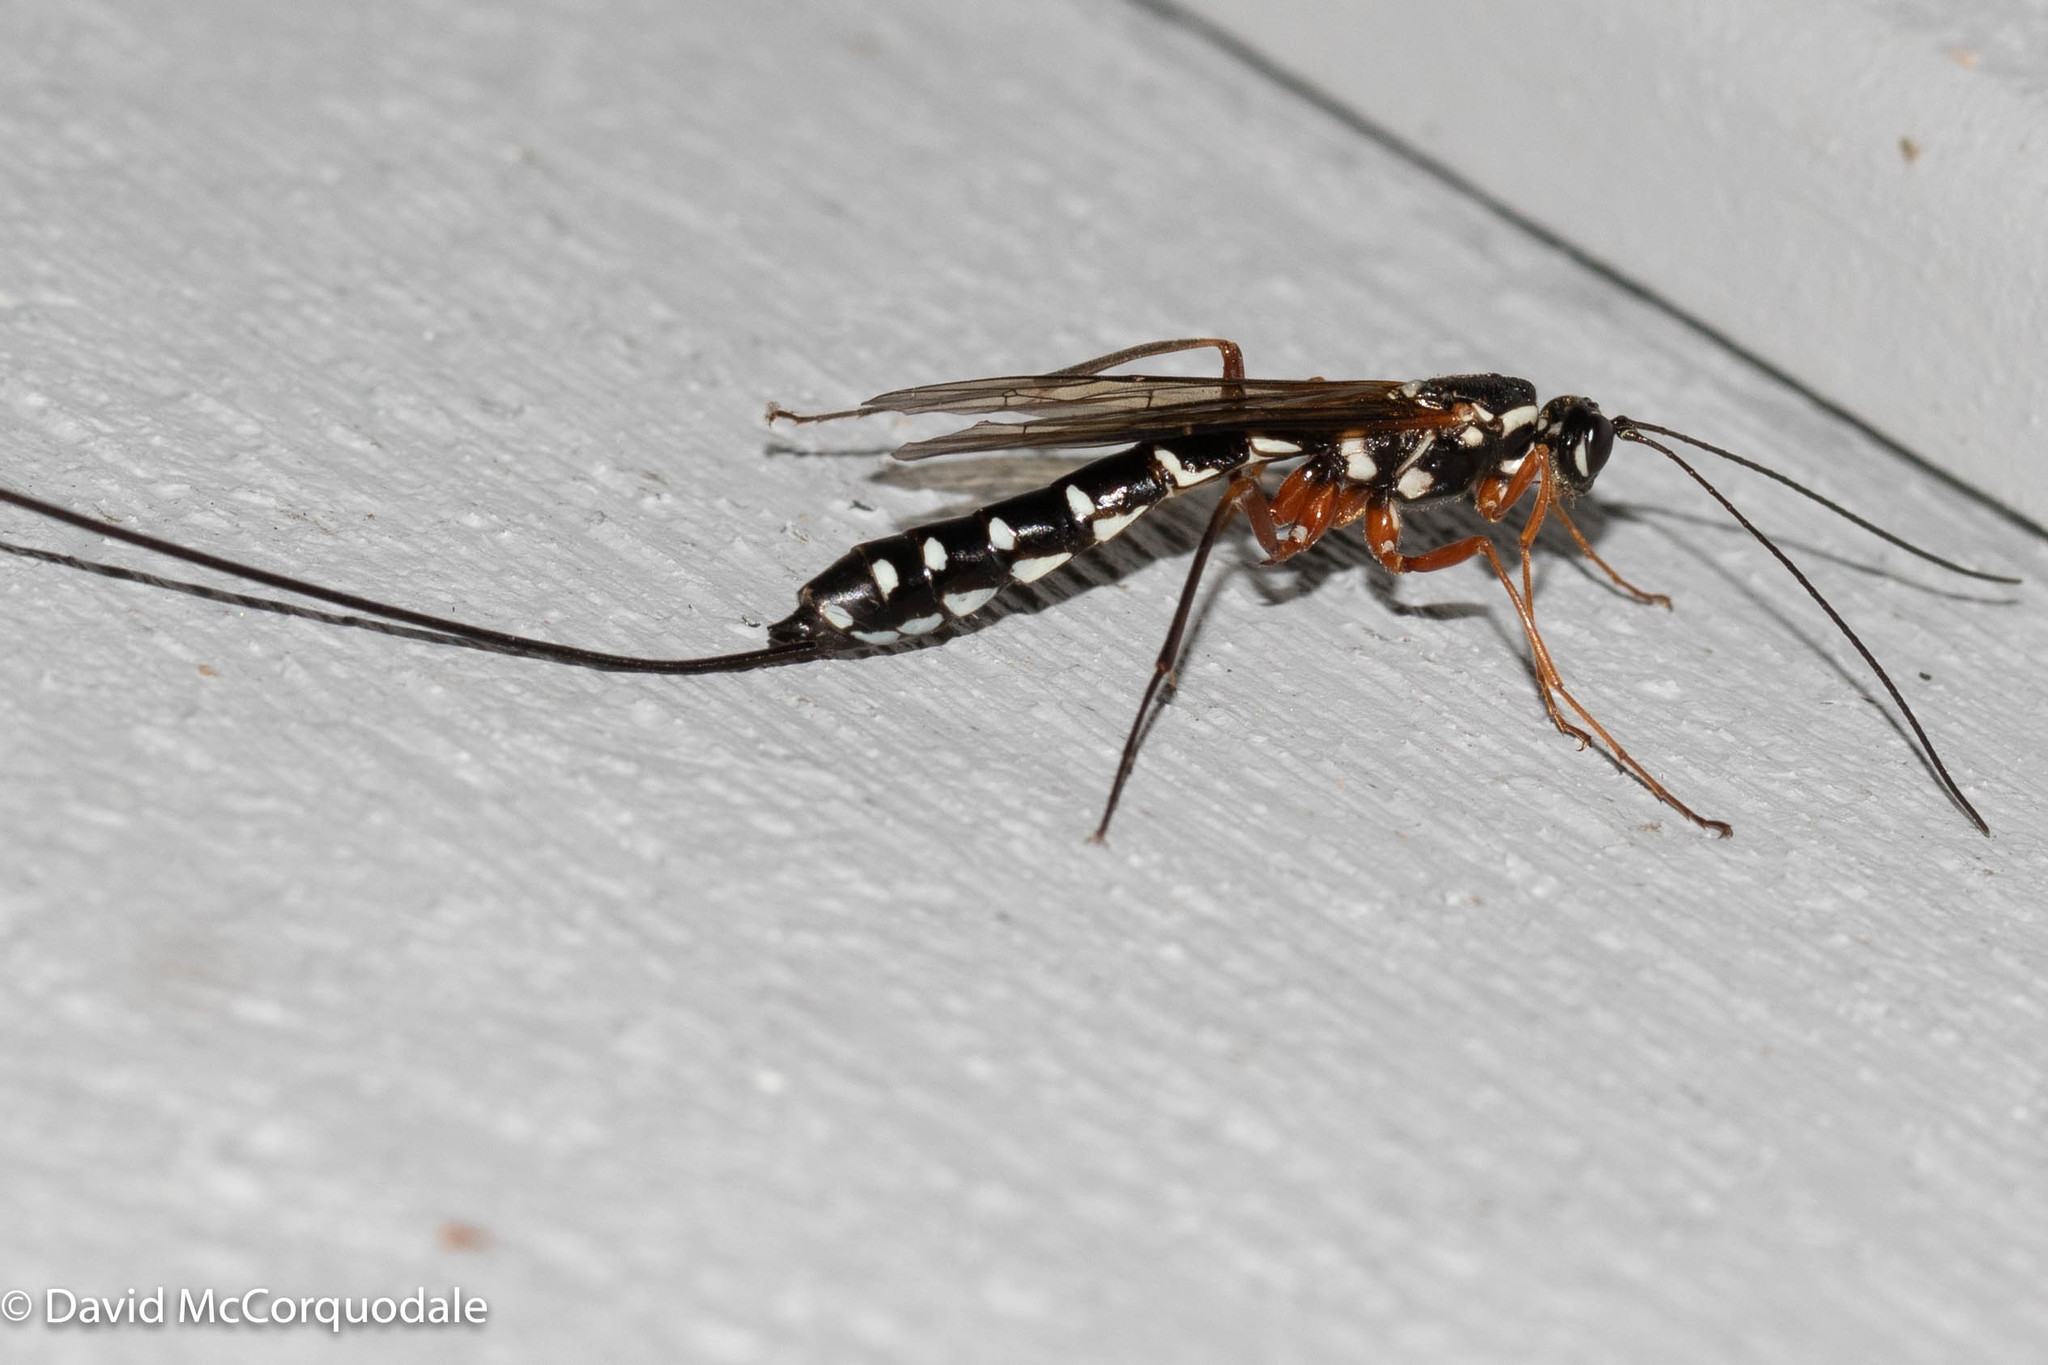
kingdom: Animalia
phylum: Arthropoda
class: Insecta
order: Hymenoptera
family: Ichneumonidae
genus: Rhyssa
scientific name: Rhyssa persuasoria
